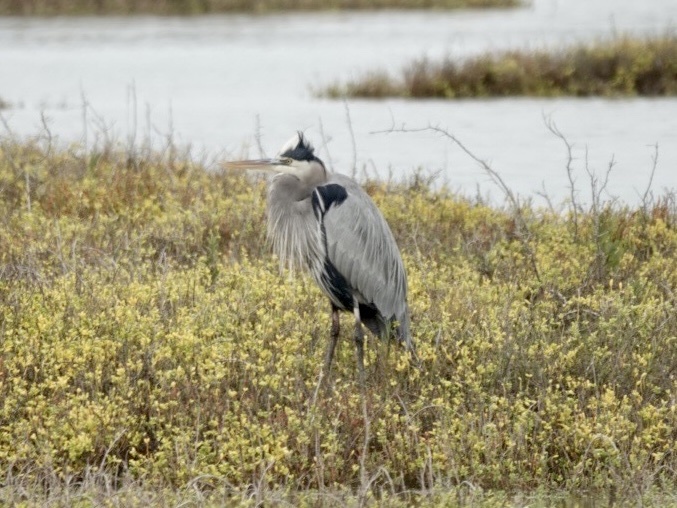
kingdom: Animalia
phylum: Chordata
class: Aves
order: Pelecaniformes
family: Ardeidae
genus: Ardea
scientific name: Ardea herodias
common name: Great blue heron
